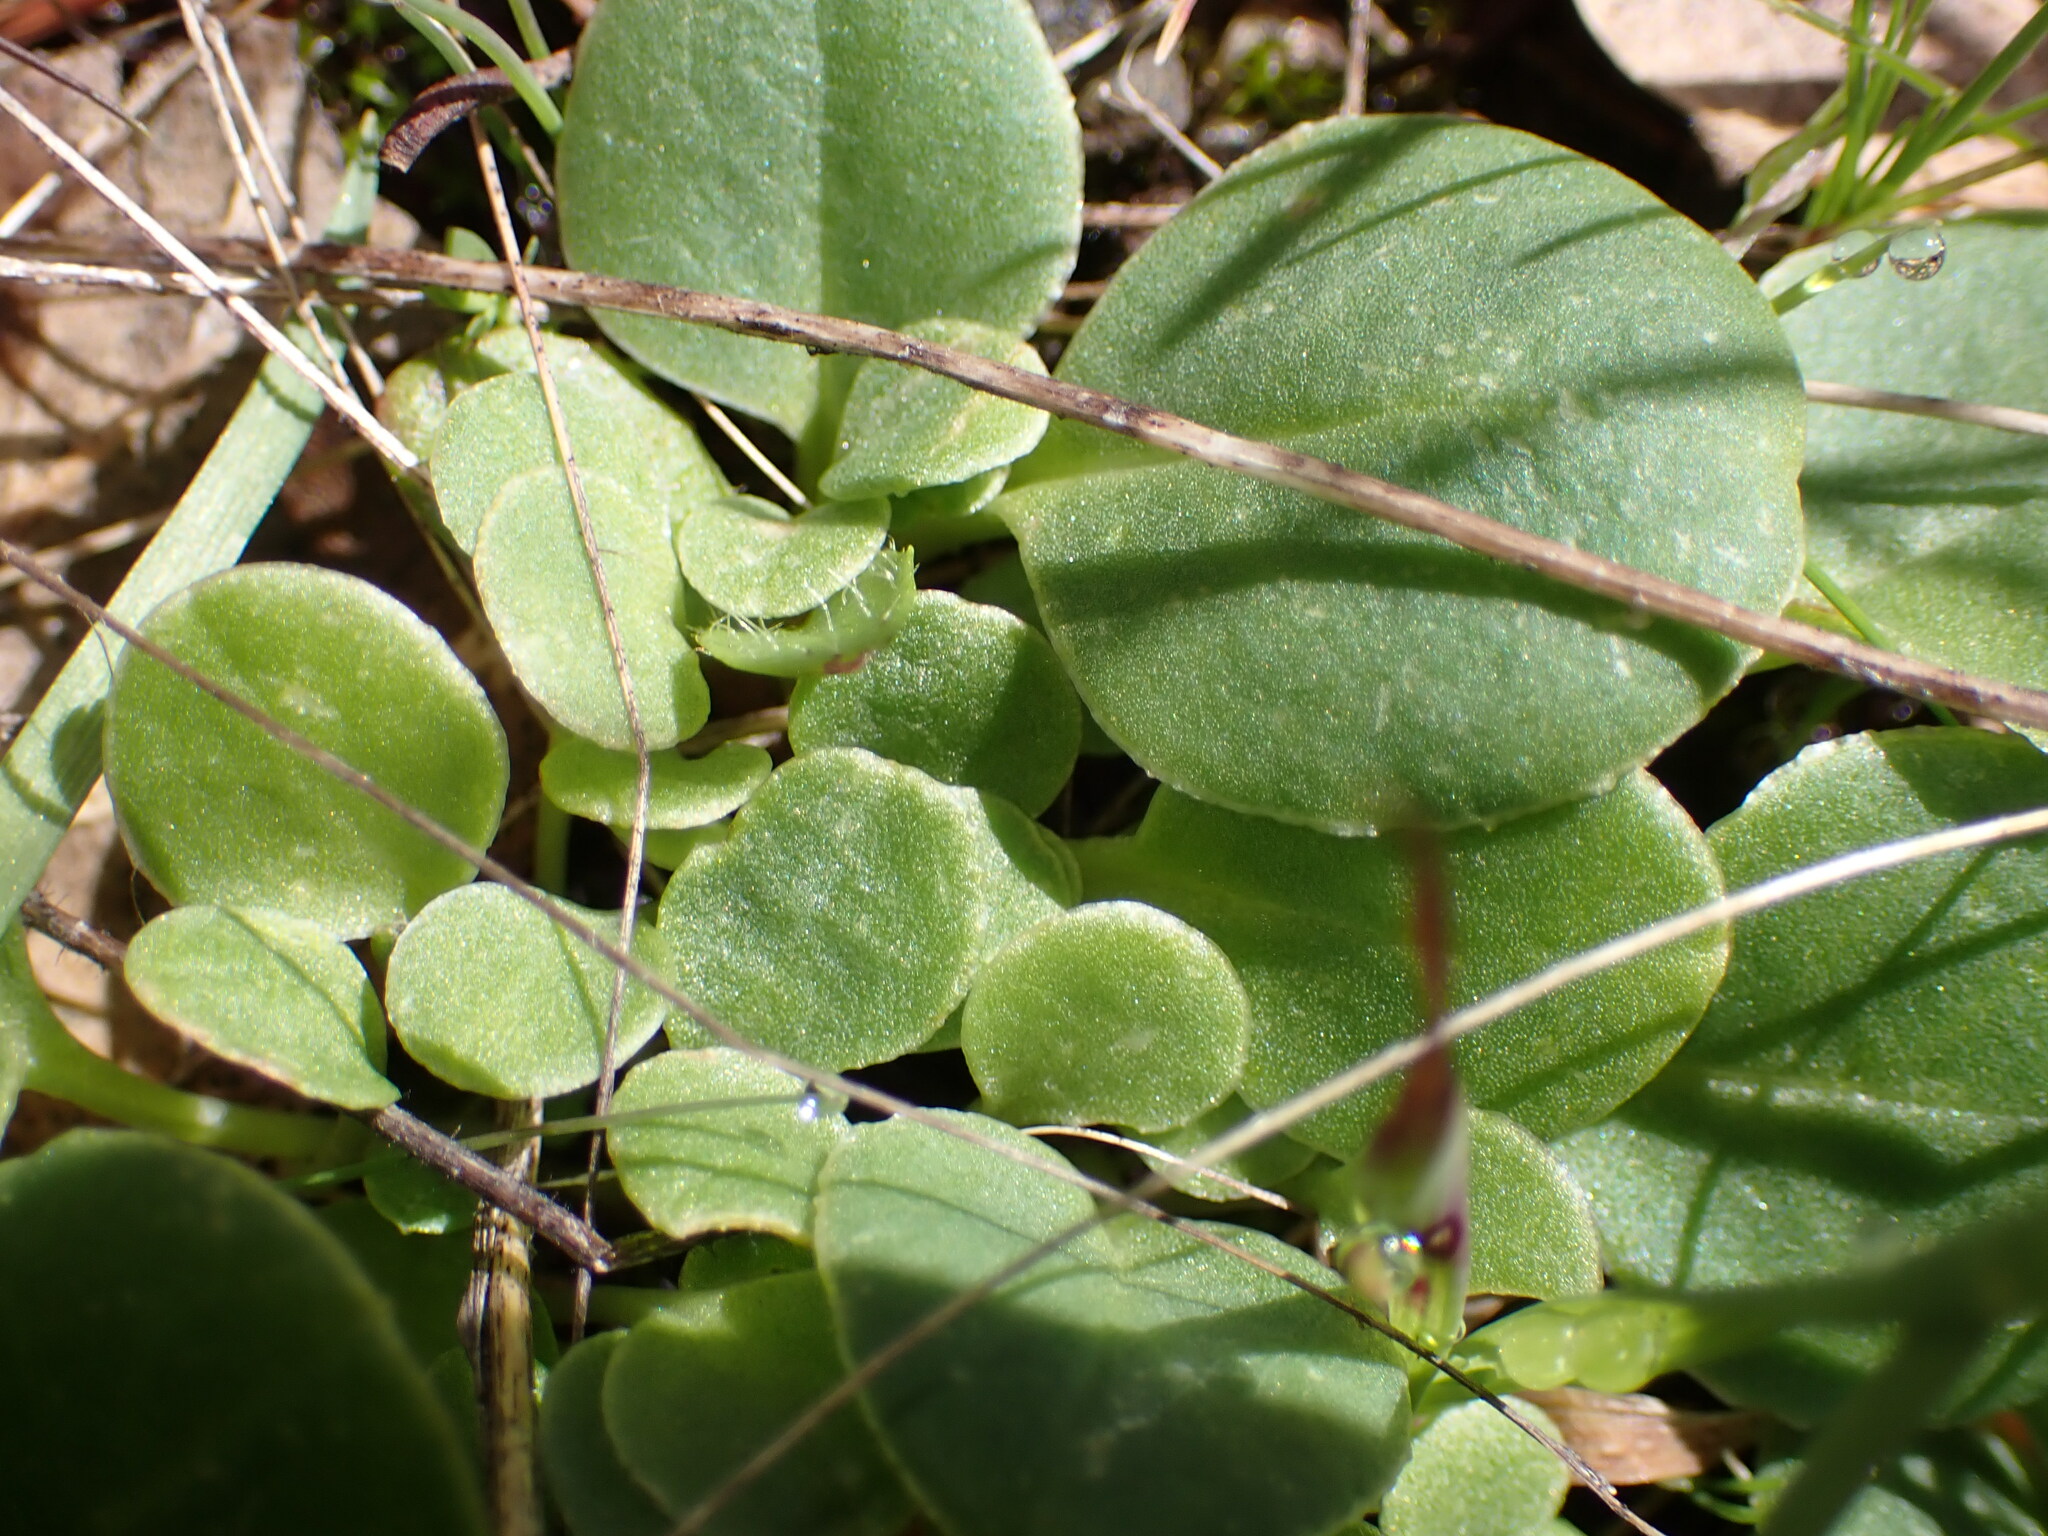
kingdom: Plantae
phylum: Tracheophyta
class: Magnoliopsida
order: Ericales
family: Primulaceae
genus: Dodecatheon
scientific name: Dodecatheon hendersonii
